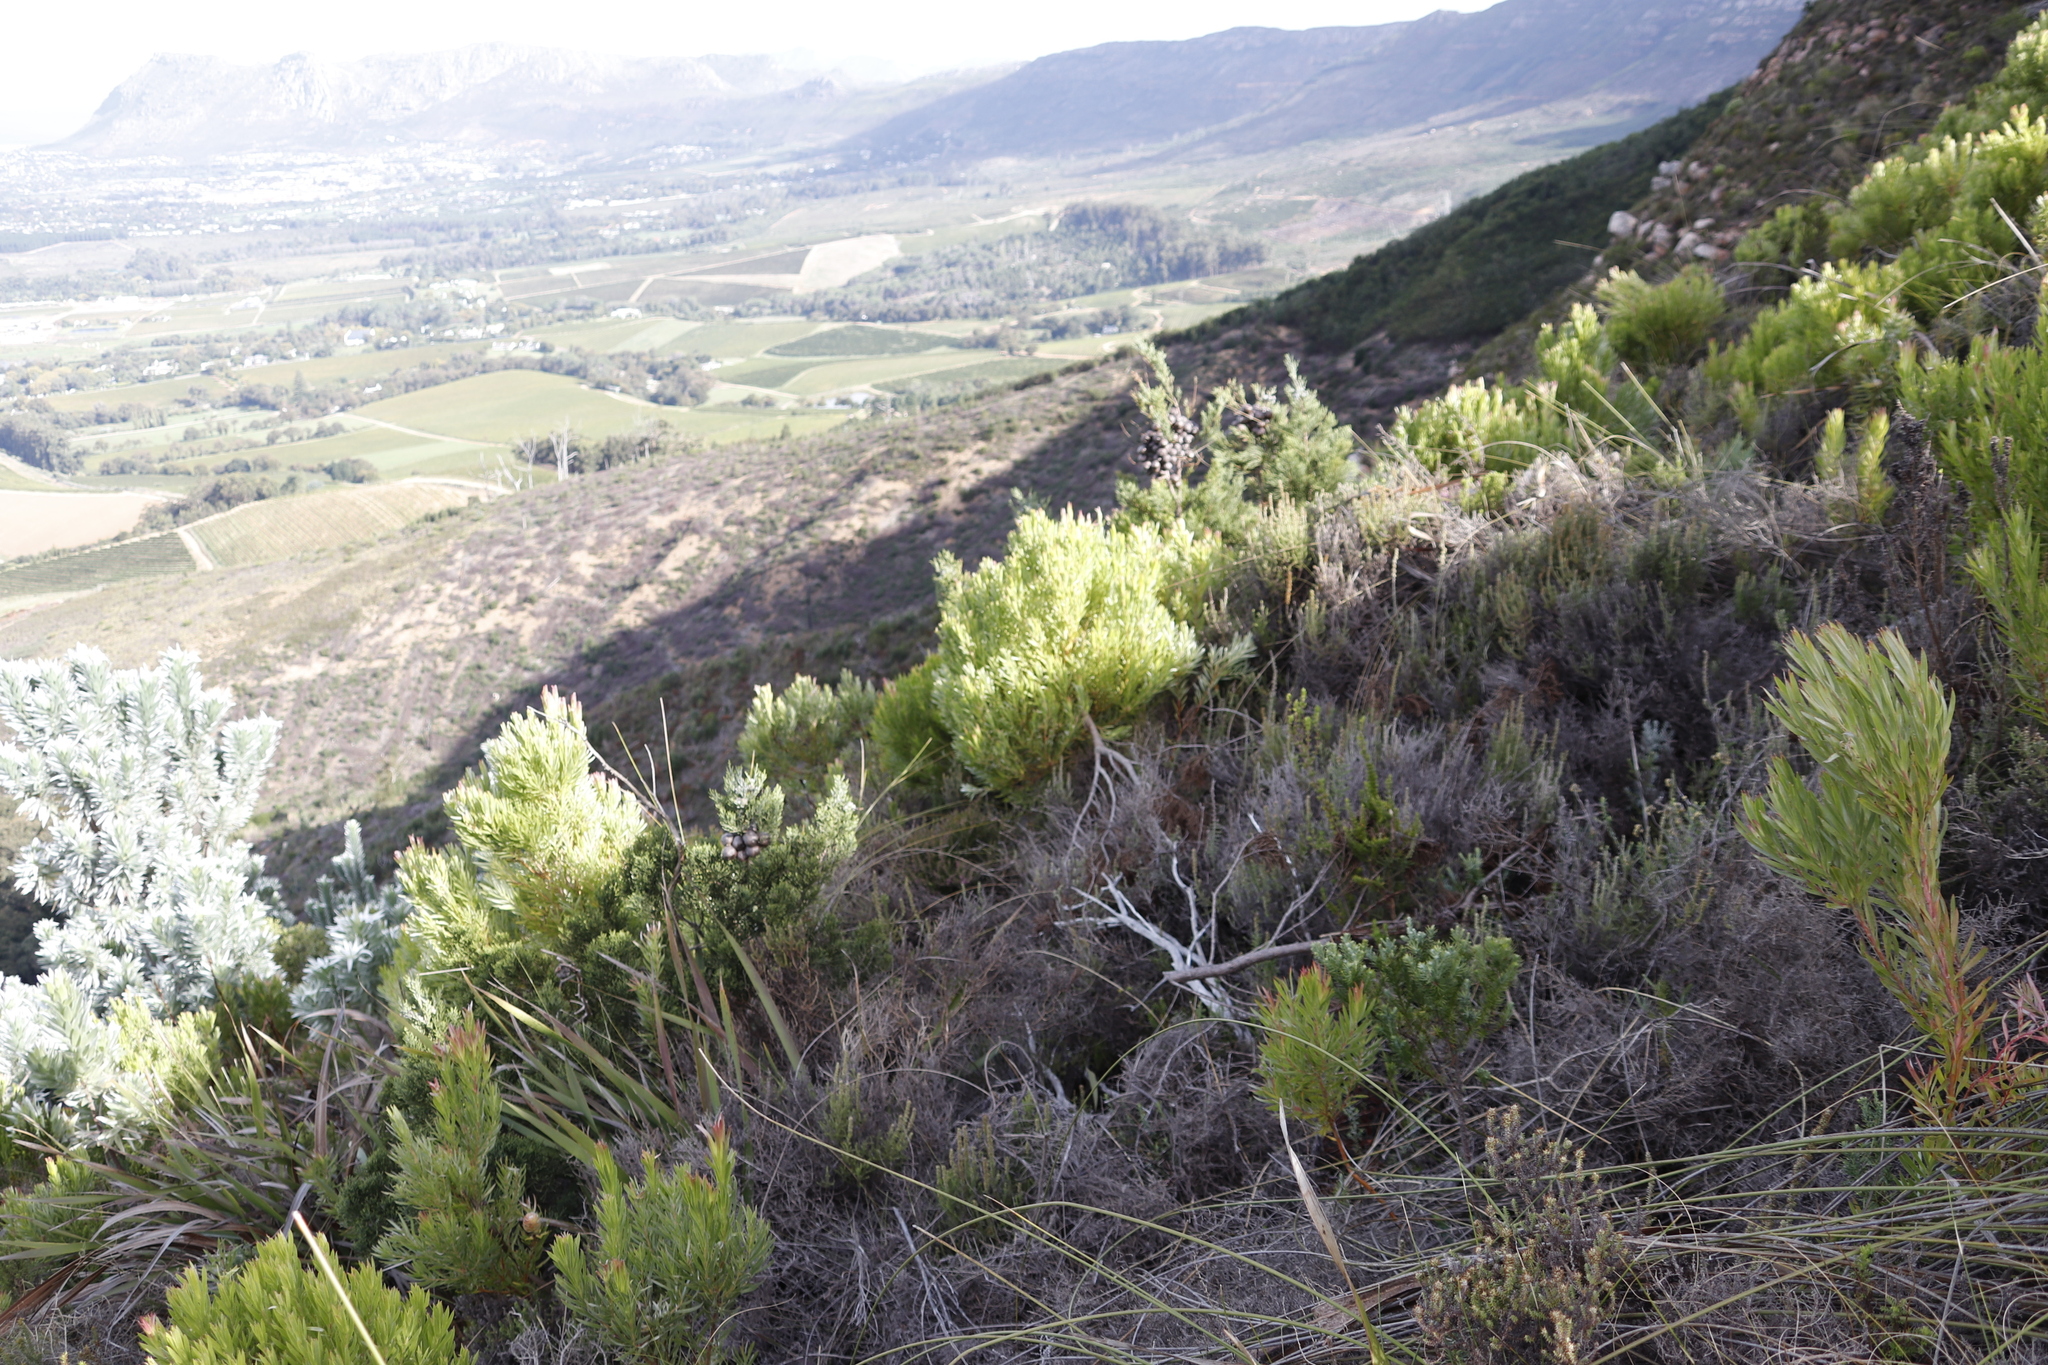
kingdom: Plantae
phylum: Tracheophyta
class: Pinopsida
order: Pinales
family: Cupressaceae
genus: Widdringtonia
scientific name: Widdringtonia nodiflora
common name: Cape cypress
